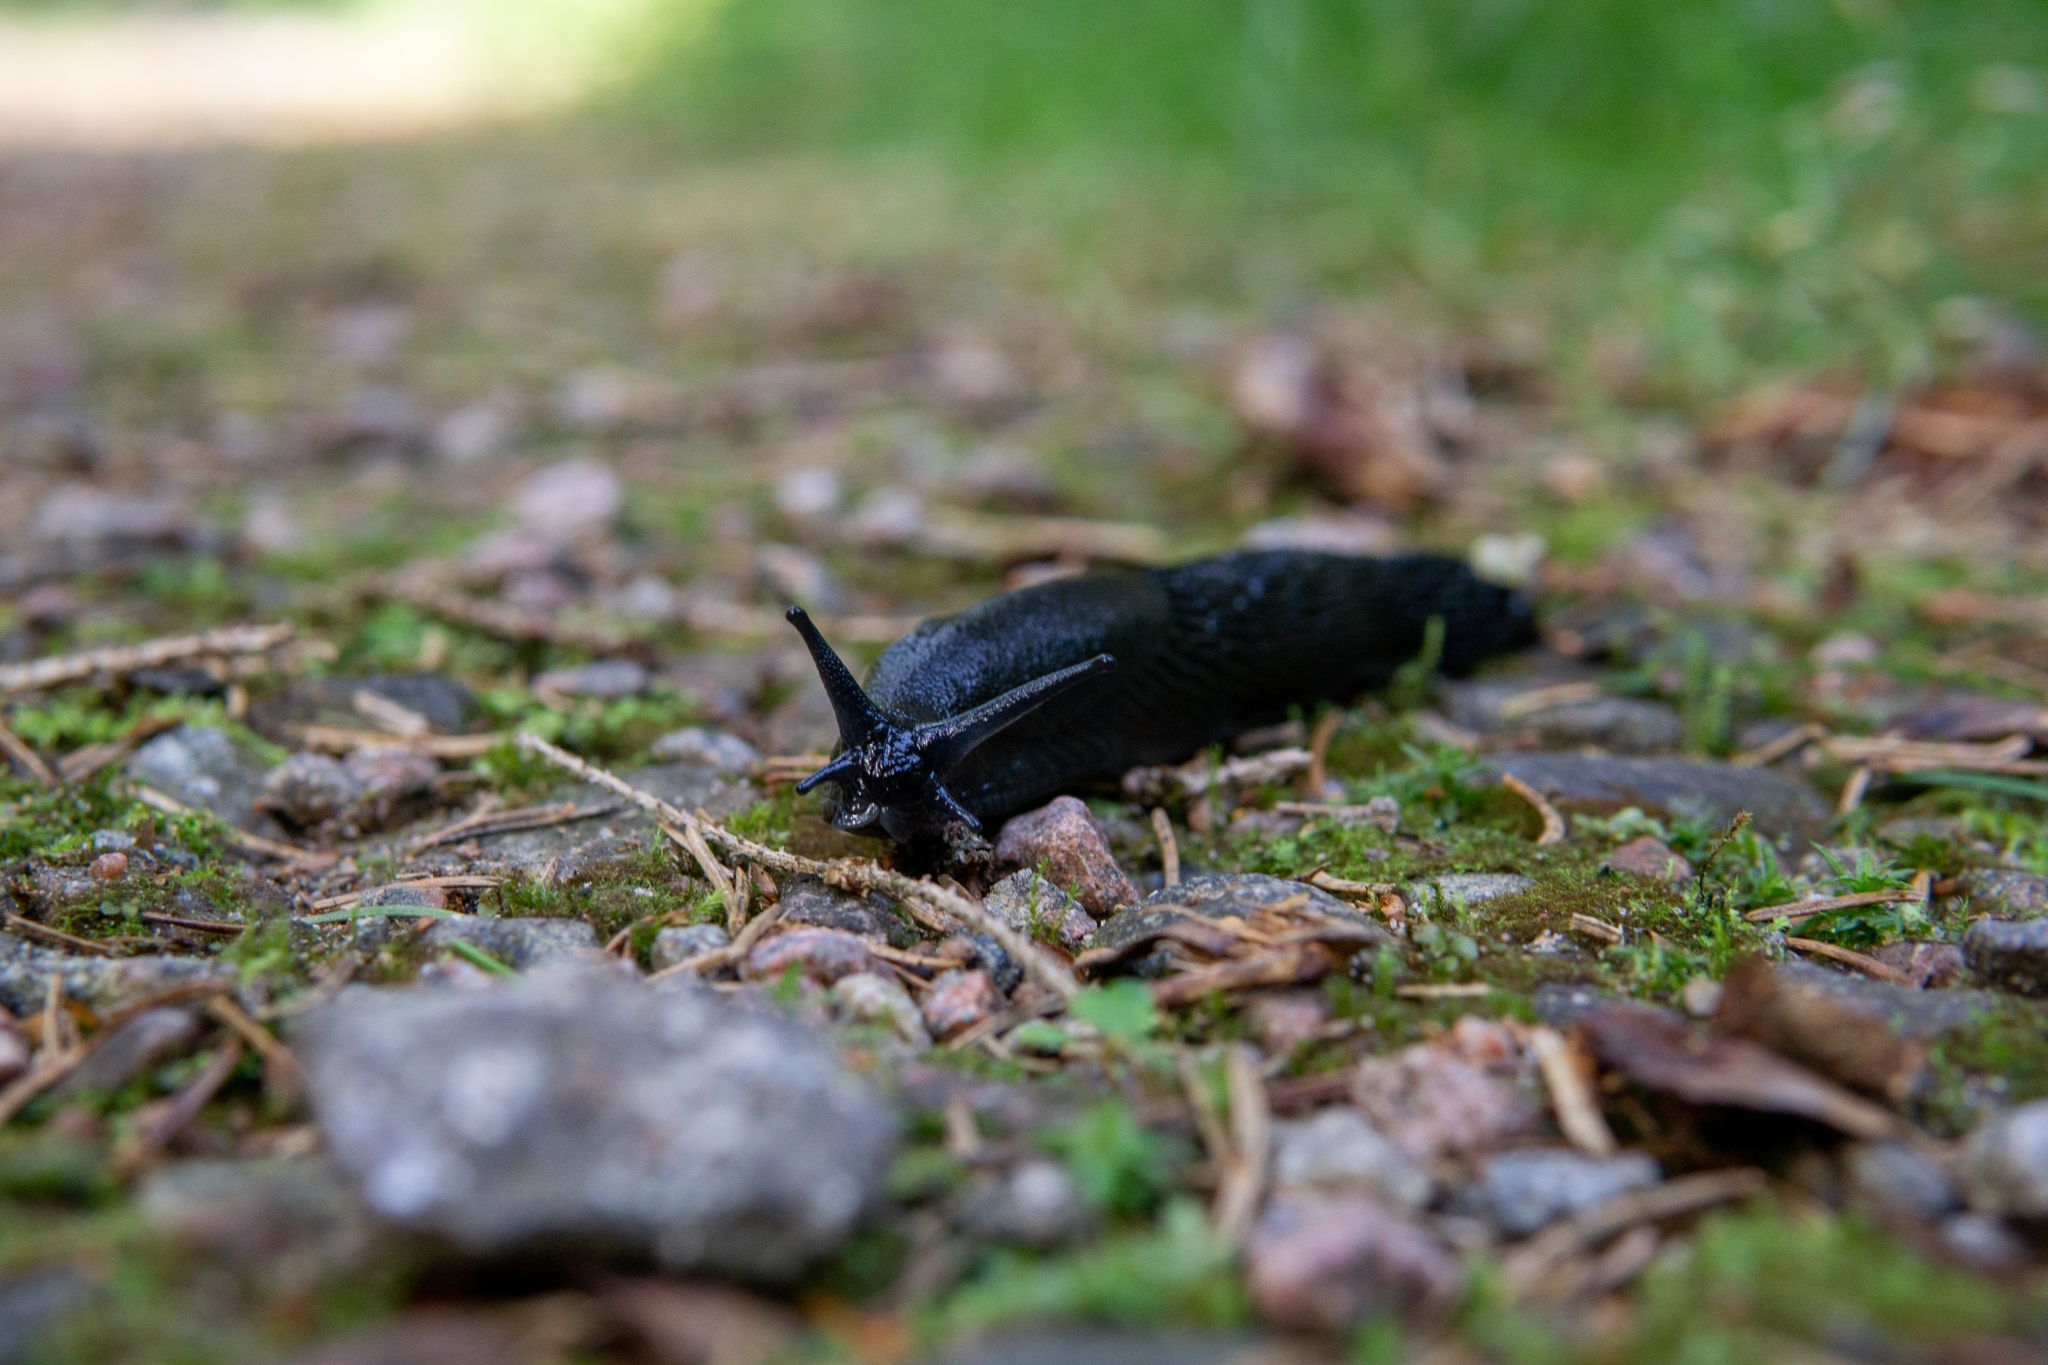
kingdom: Animalia
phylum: Mollusca
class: Gastropoda
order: Stylommatophora
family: Arionidae
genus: Arion
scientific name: Arion ater
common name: Black arion
